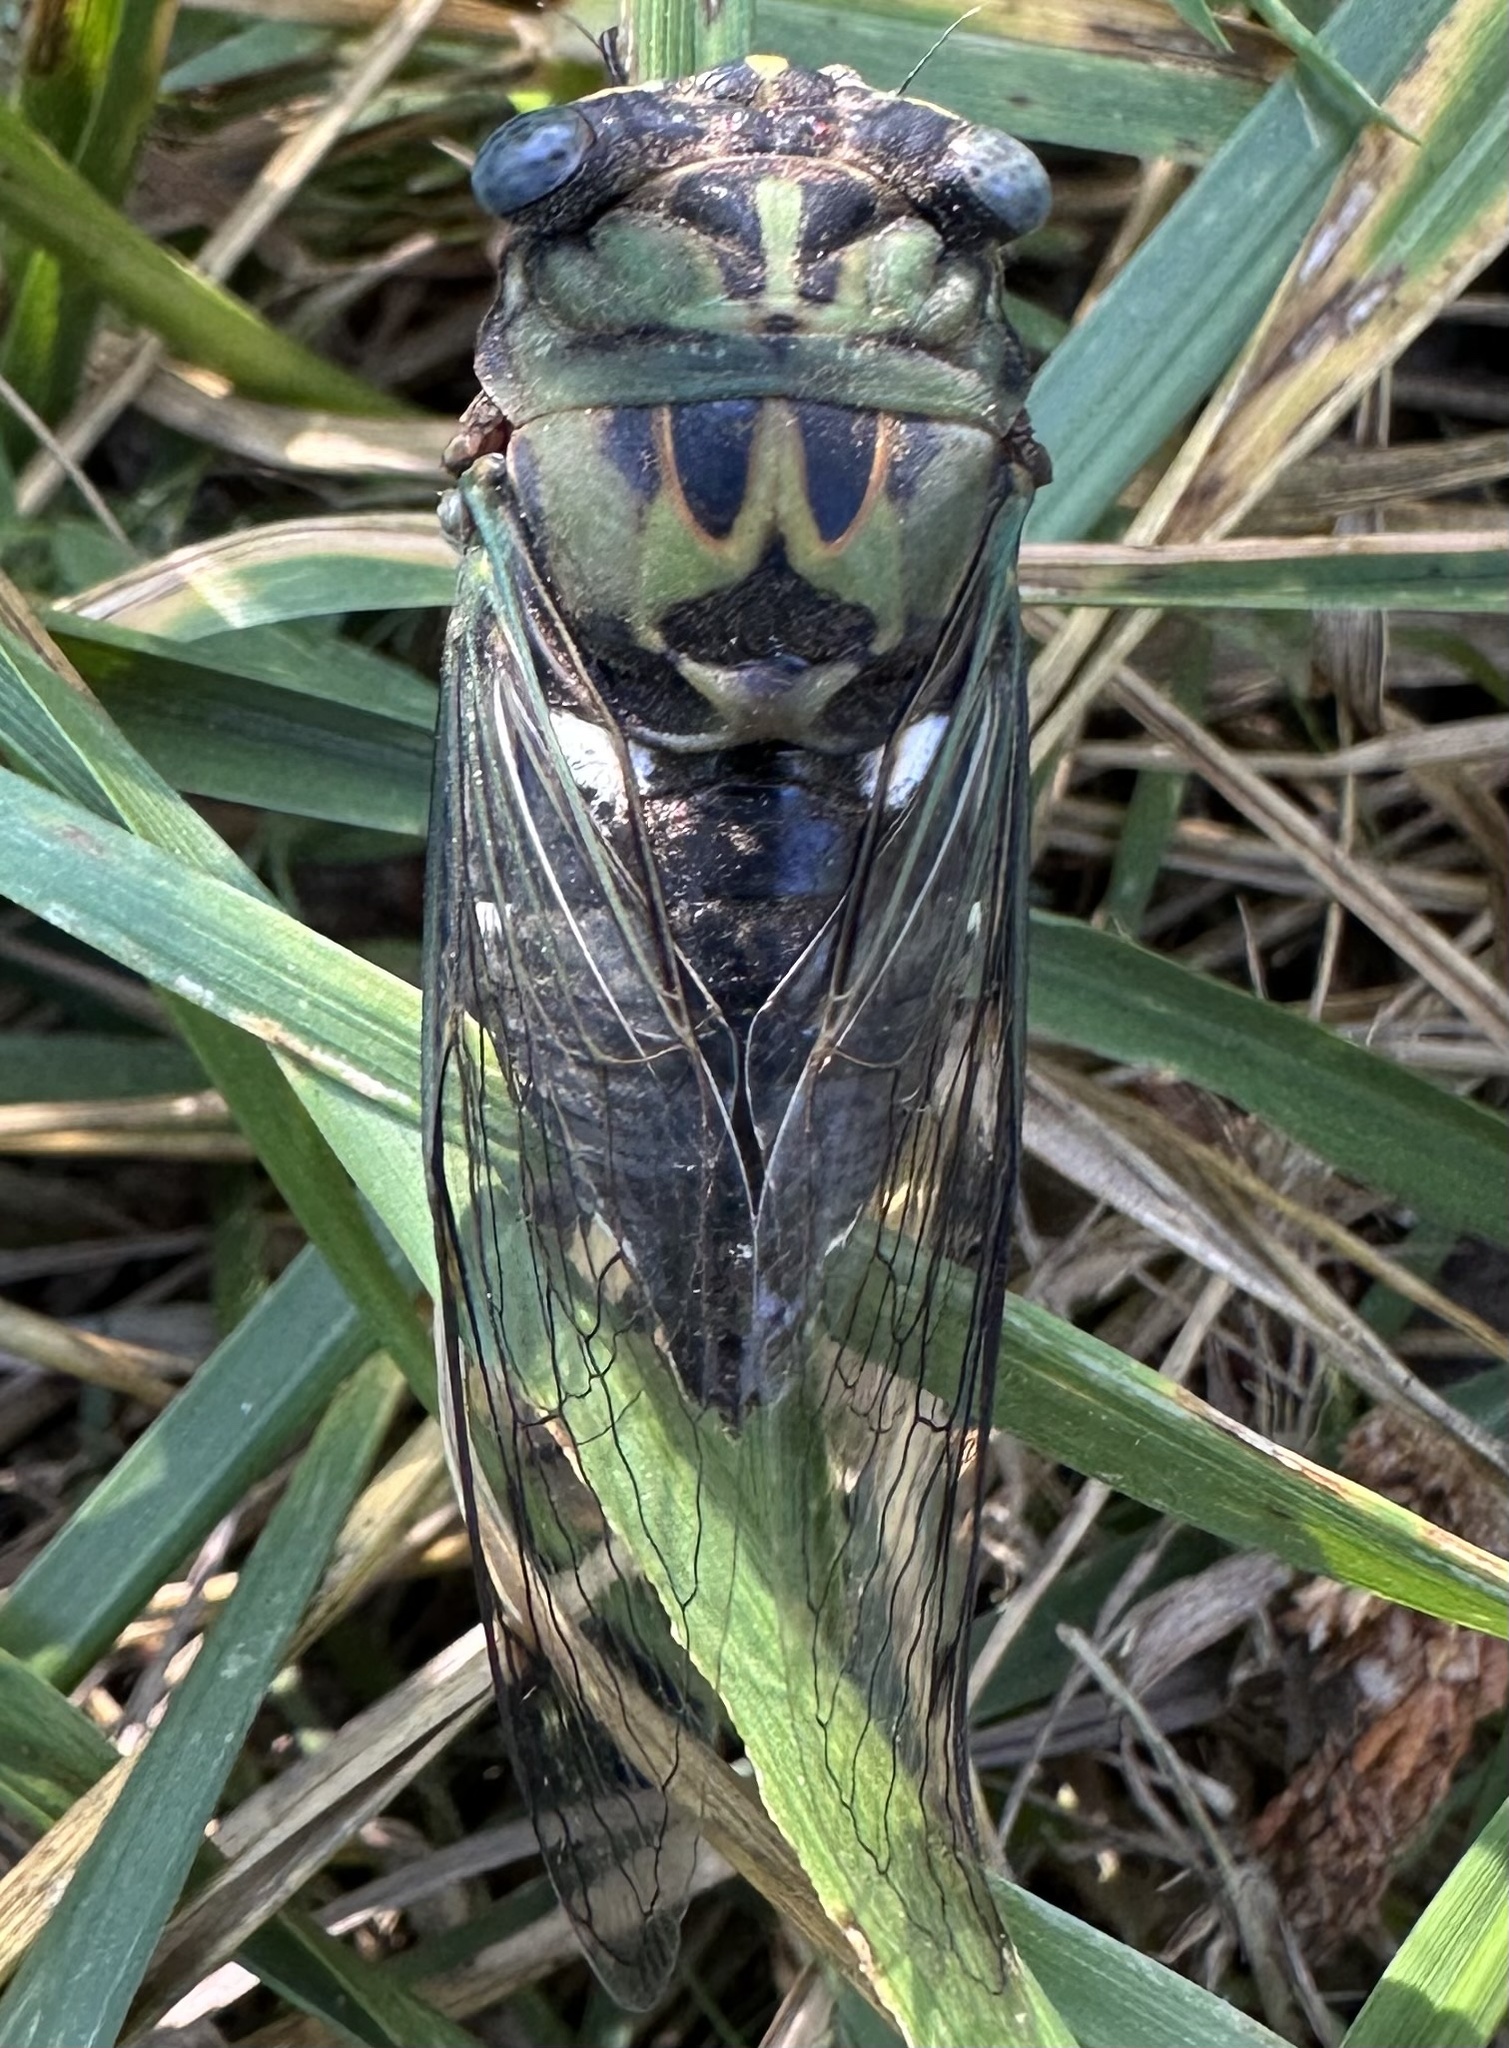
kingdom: Animalia
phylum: Arthropoda
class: Insecta
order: Hemiptera
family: Cicadidae
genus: Neotibicen
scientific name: Neotibicen pruinosus
